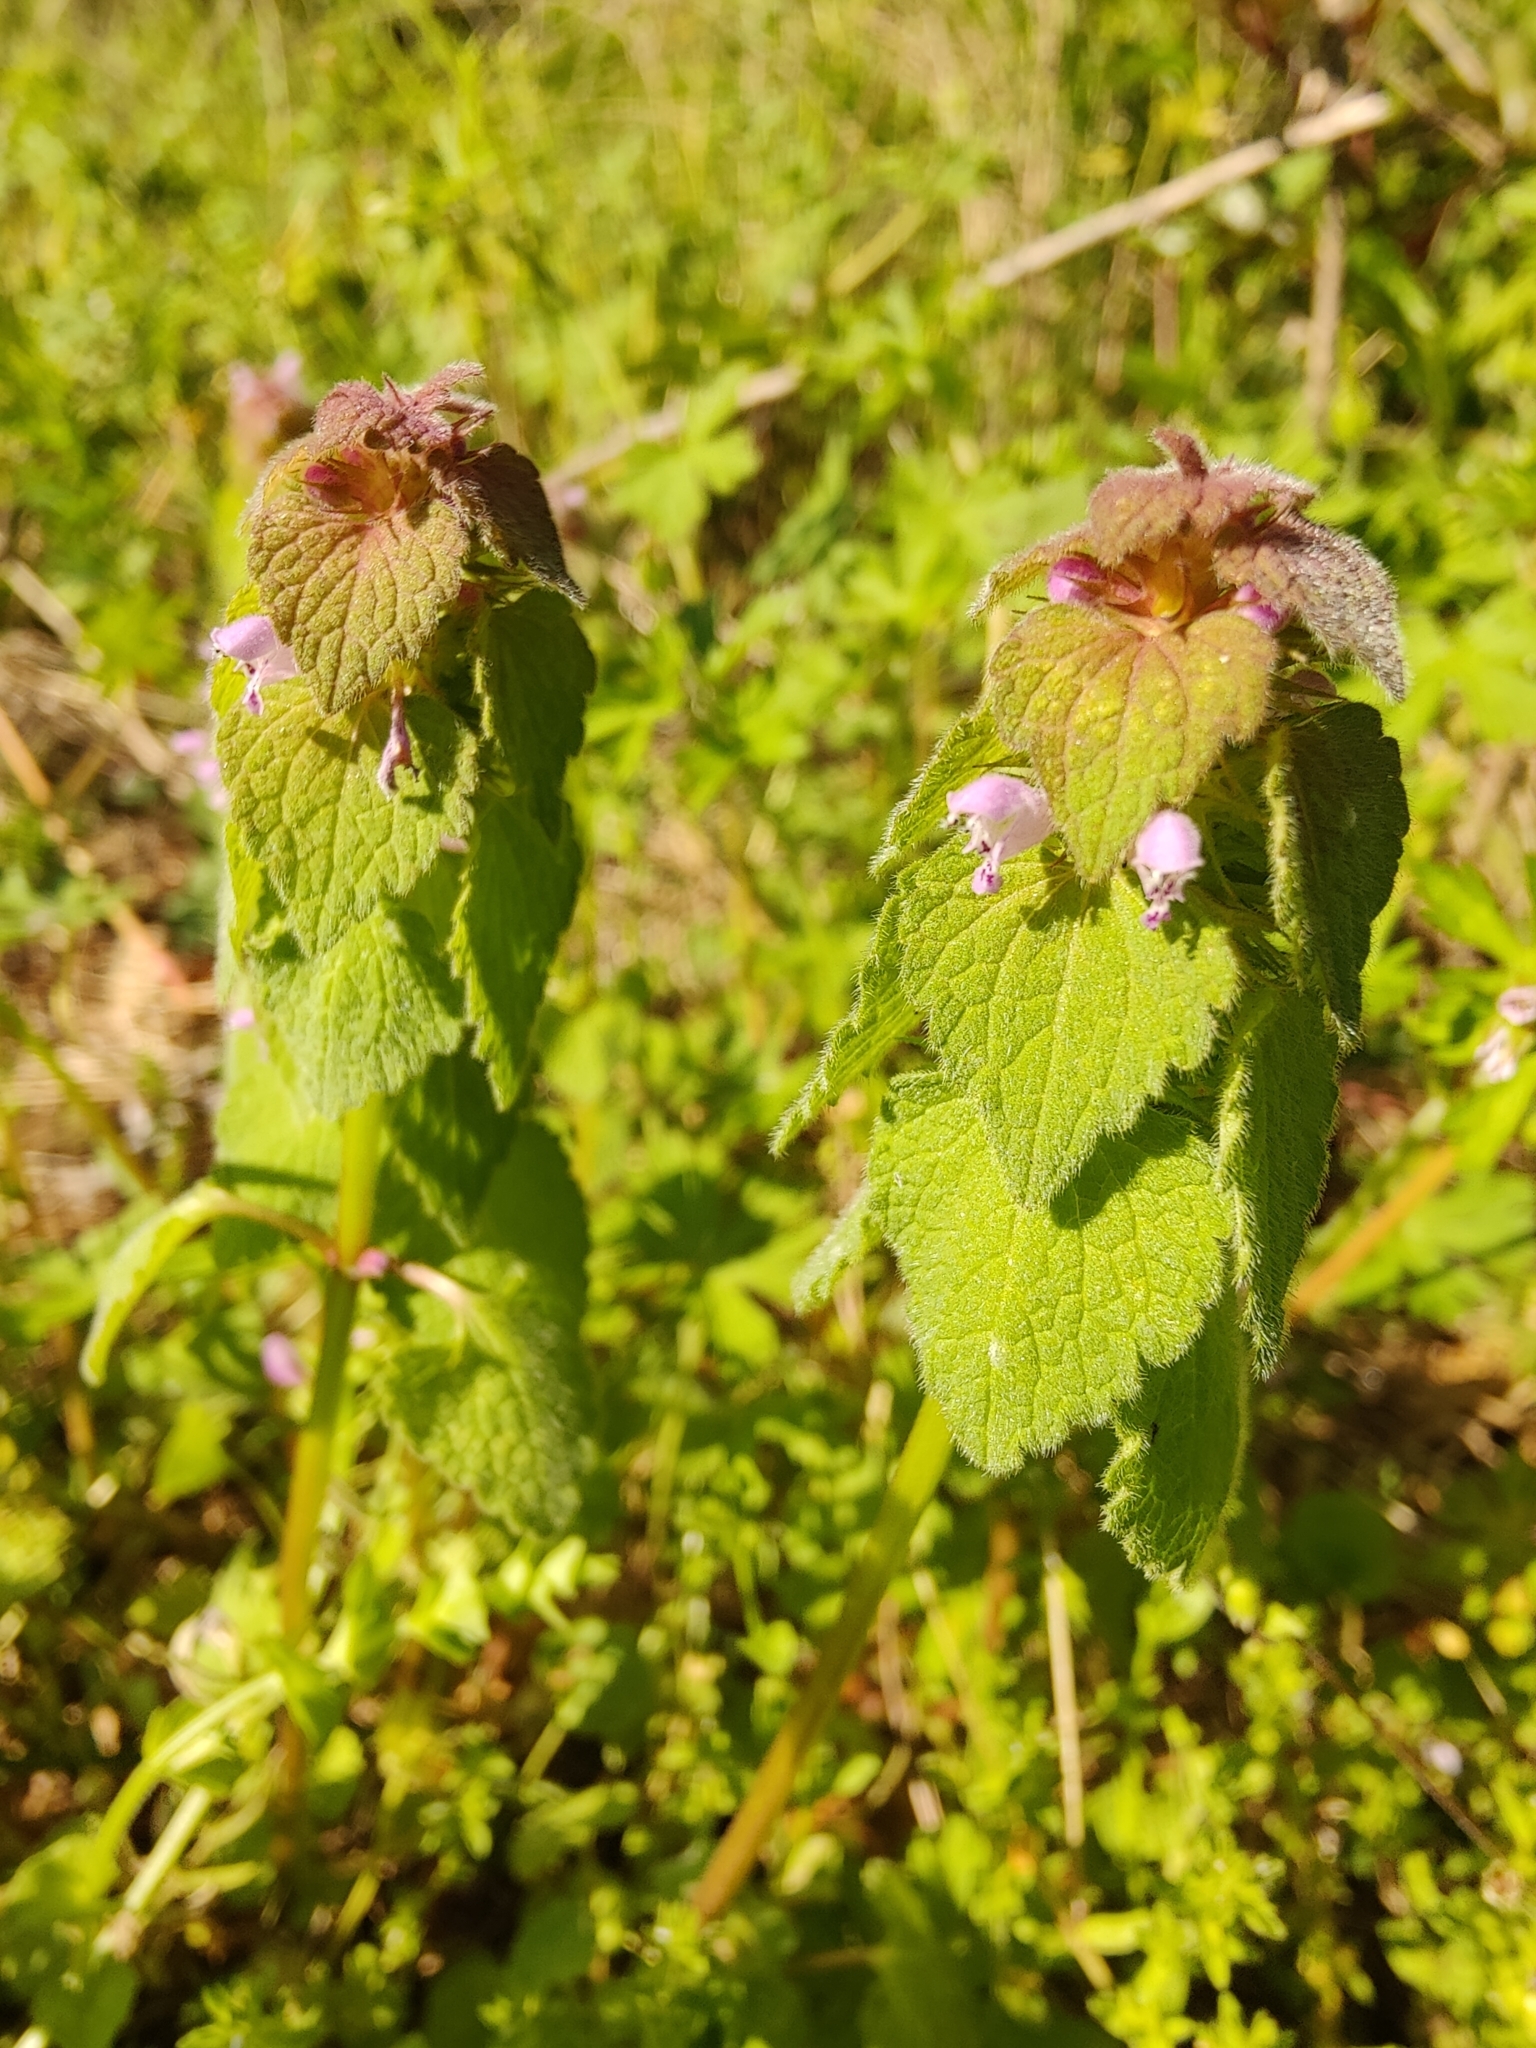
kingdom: Plantae
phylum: Tracheophyta
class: Magnoliopsida
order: Lamiales
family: Lamiaceae
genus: Lamium
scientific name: Lamium purpureum
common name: Red dead-nettle
